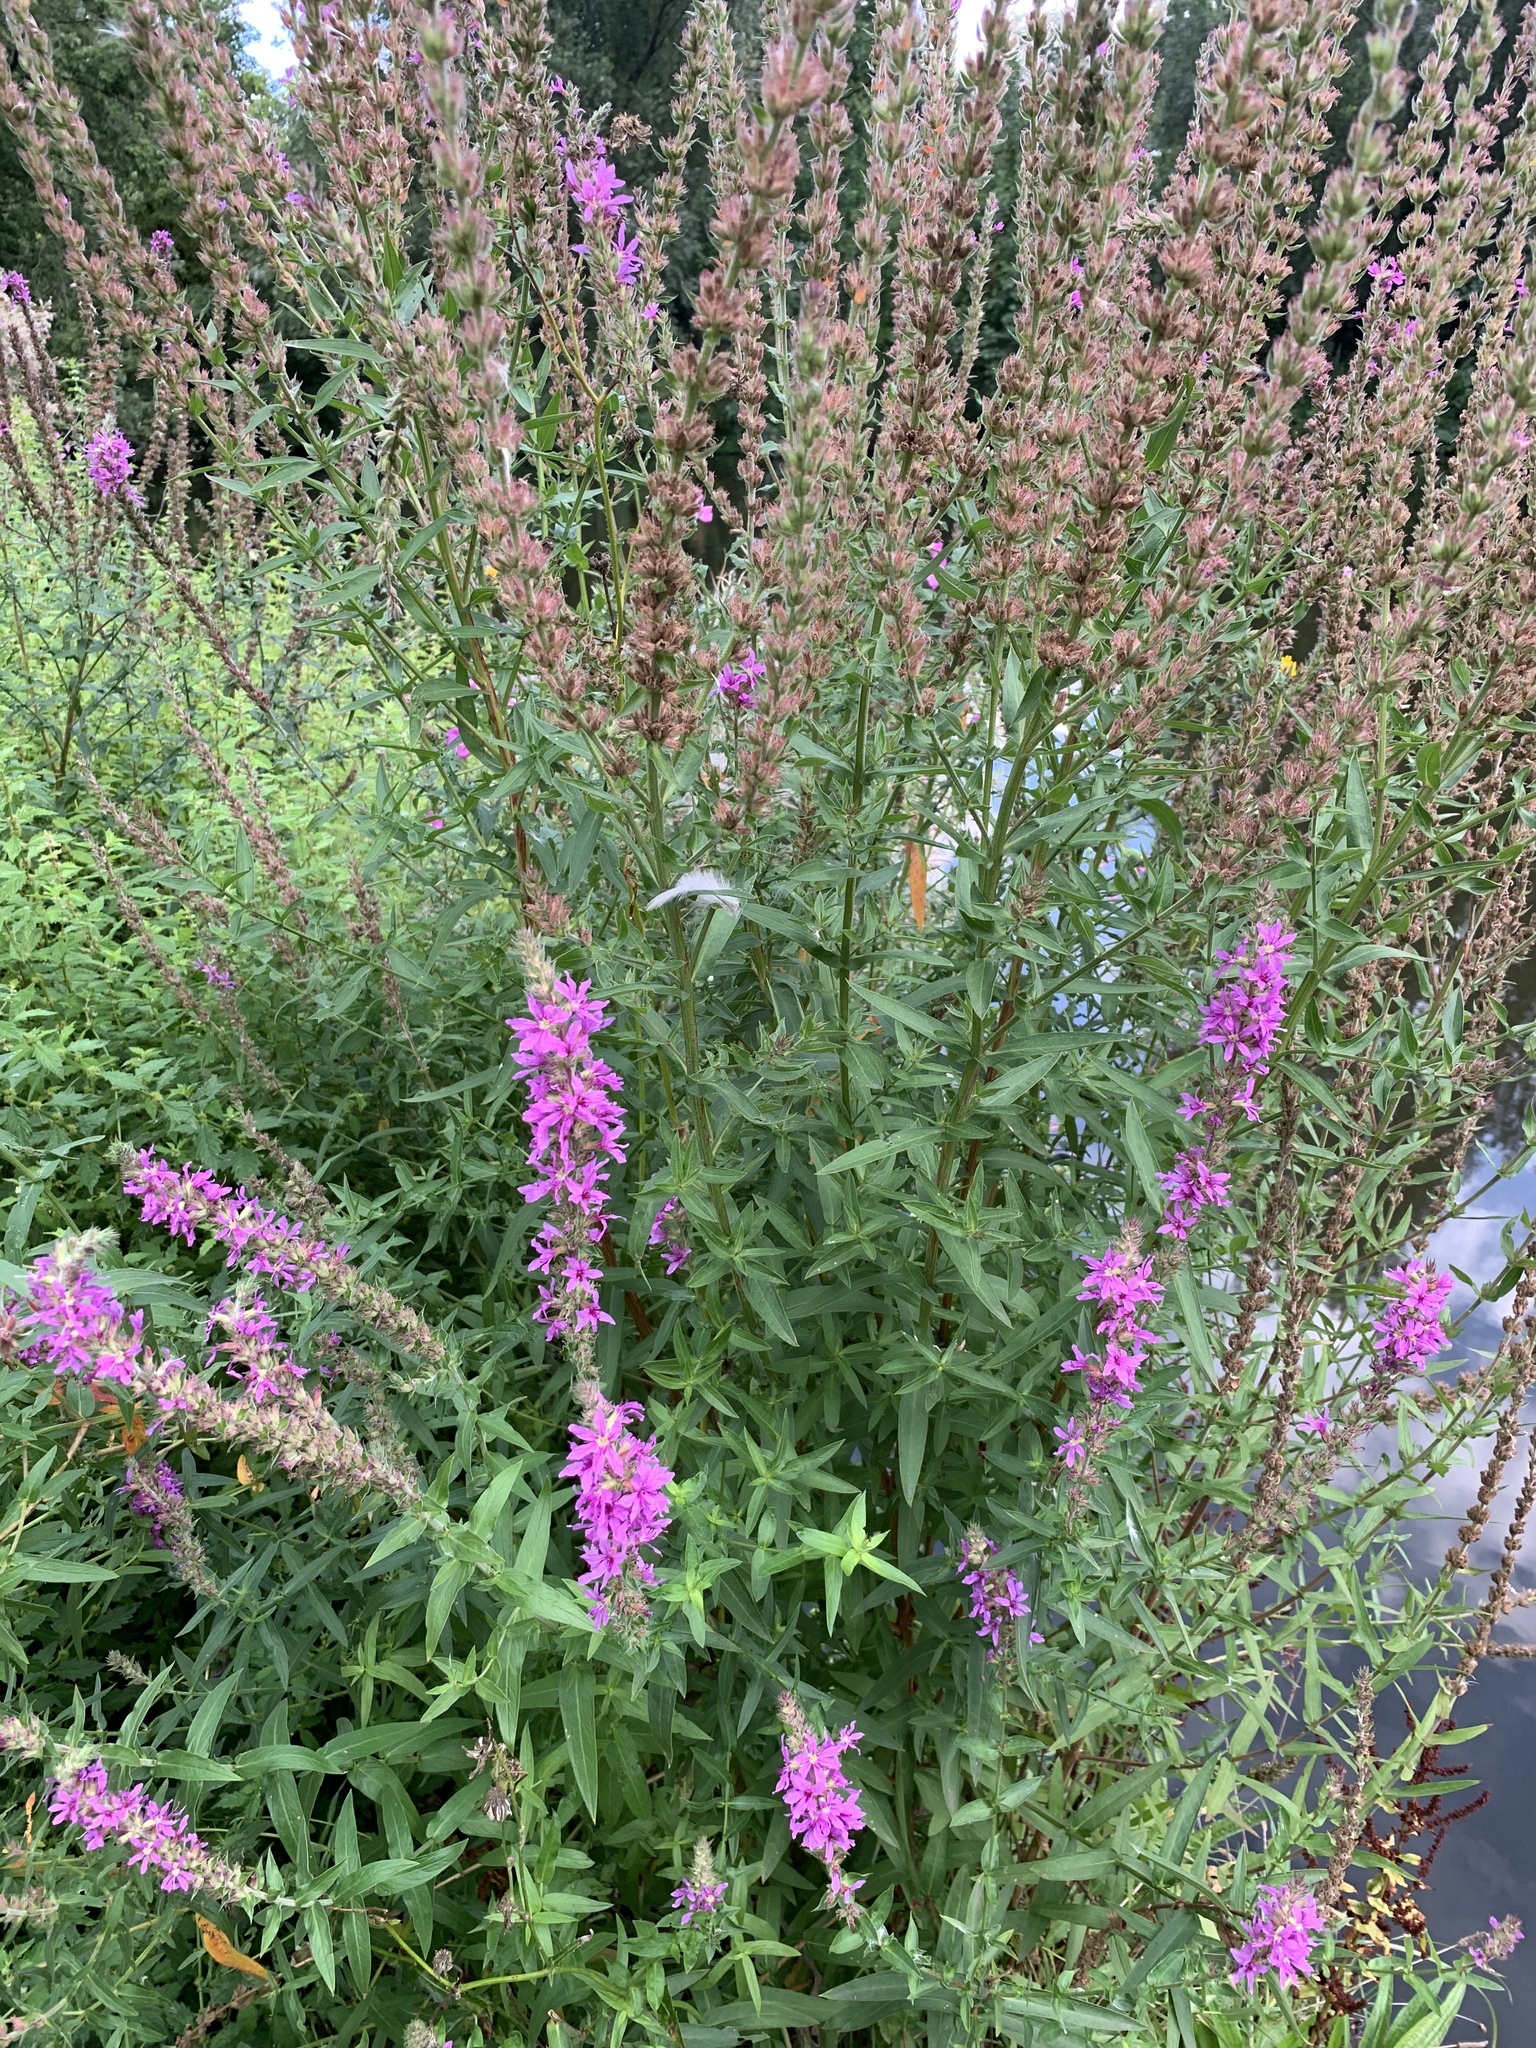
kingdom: Plantae
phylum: Tracheophyta
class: Magnoliopsida
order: Myrtales
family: Lythraceae
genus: Lythrum
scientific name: Lythrum salicaria
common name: Purple loosestrife
